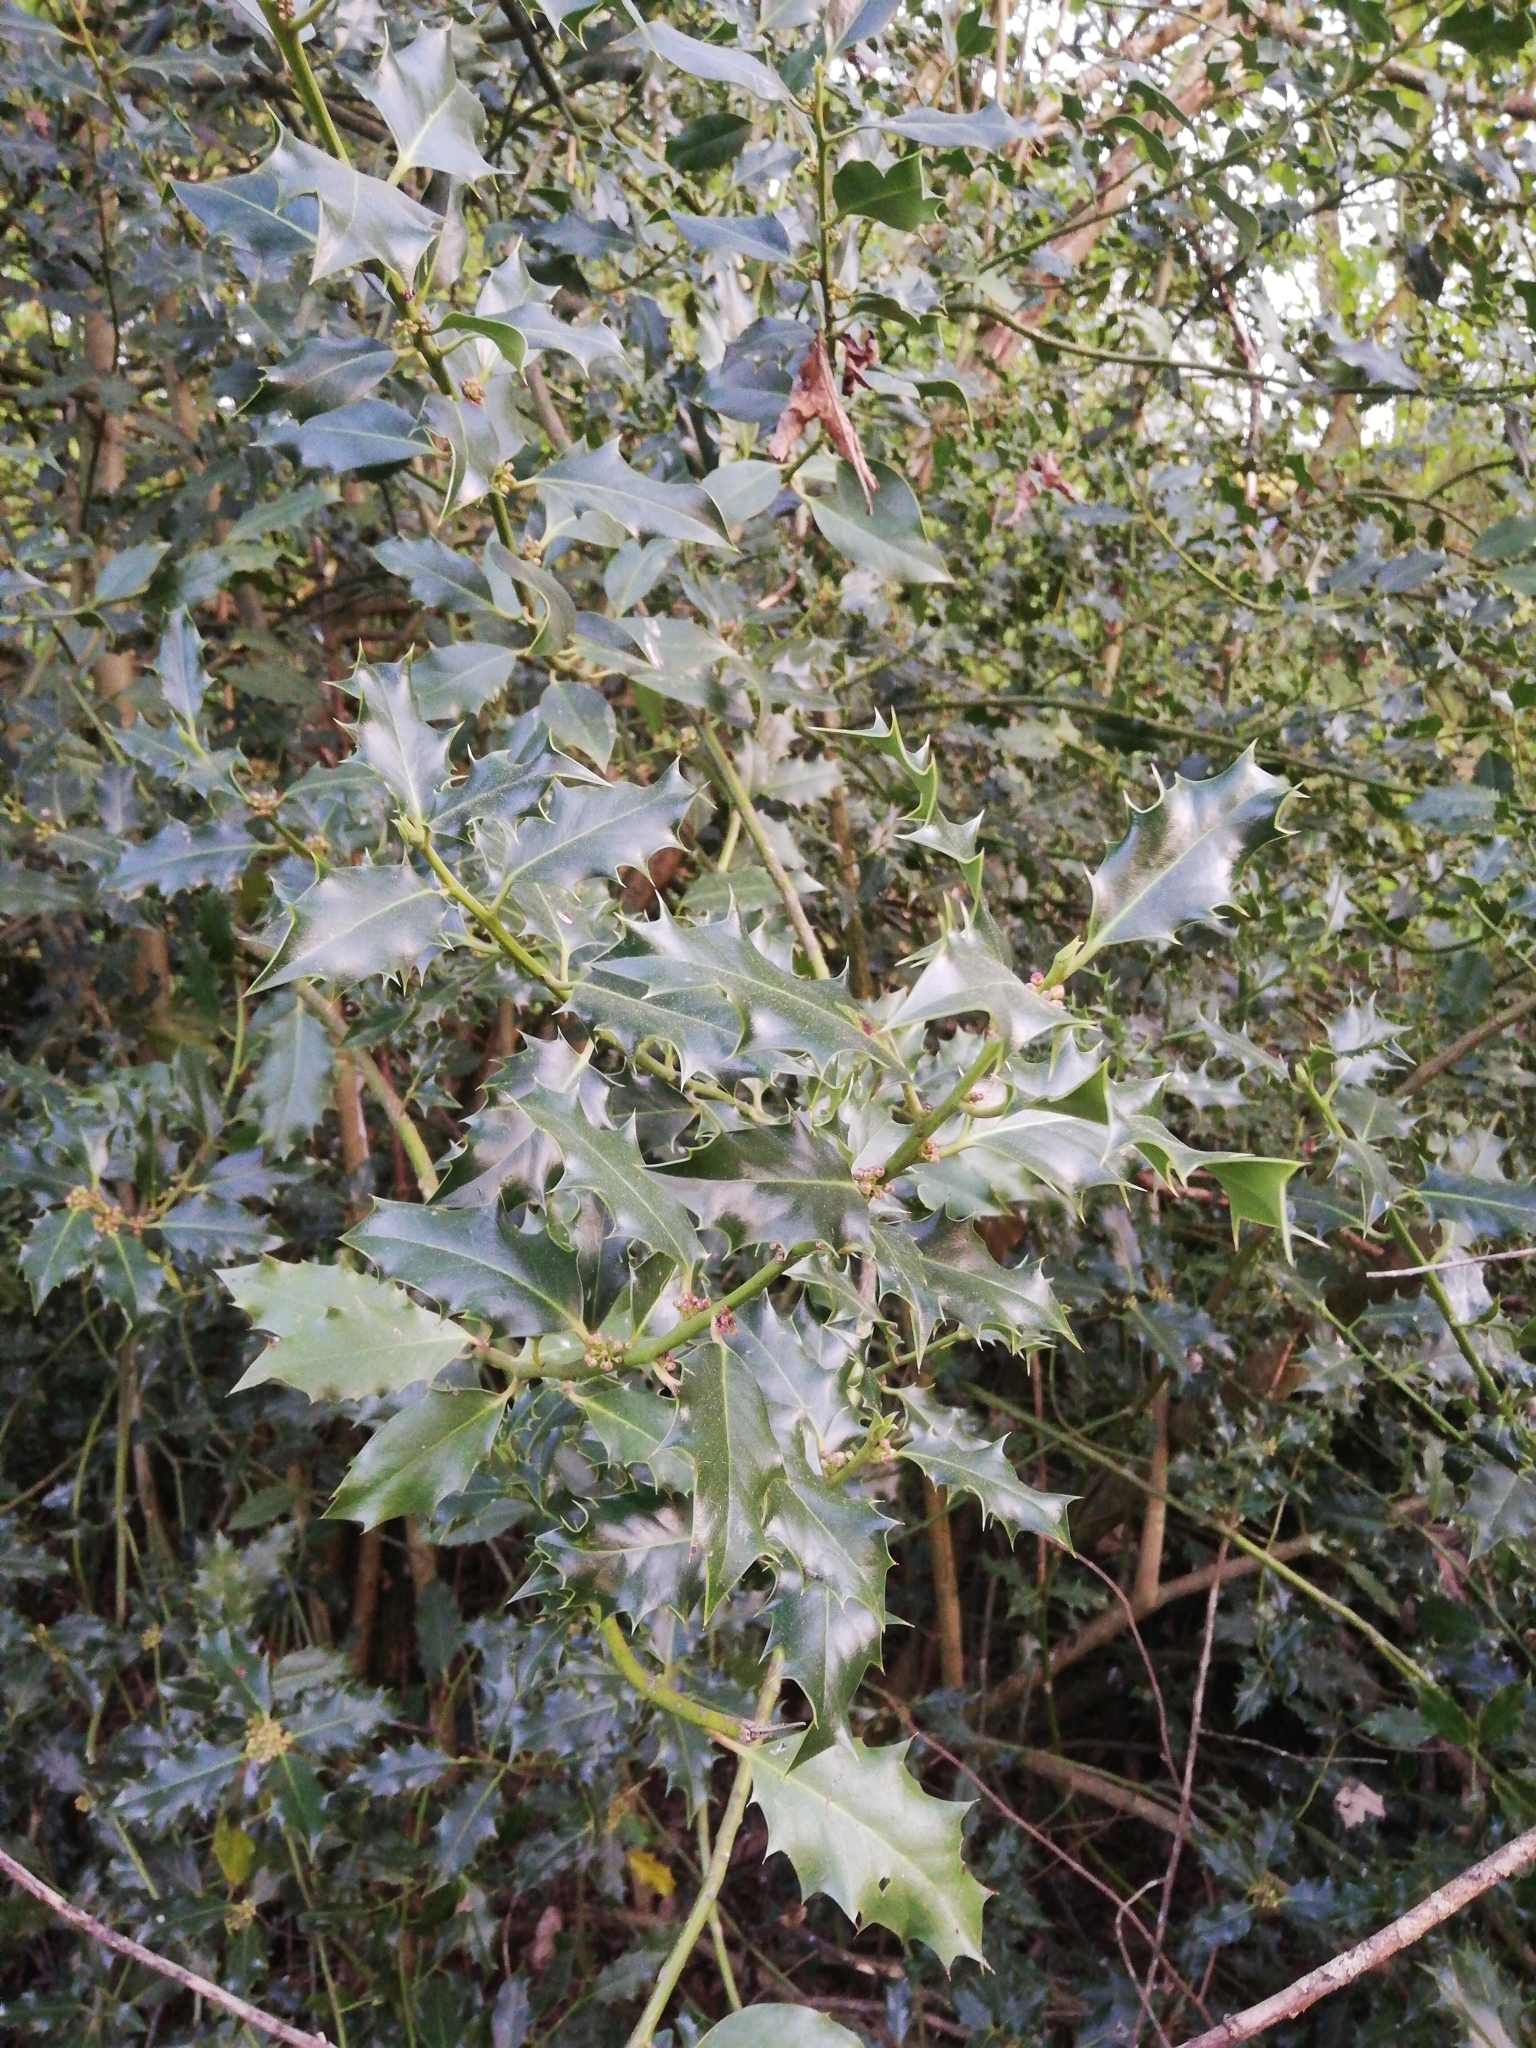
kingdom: Plantae
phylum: Tracheophyta
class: Magnoliopsida
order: Aquifoliales
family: Aquifoliaceae
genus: Ilex
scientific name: Ilex aquifolium
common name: English holly
